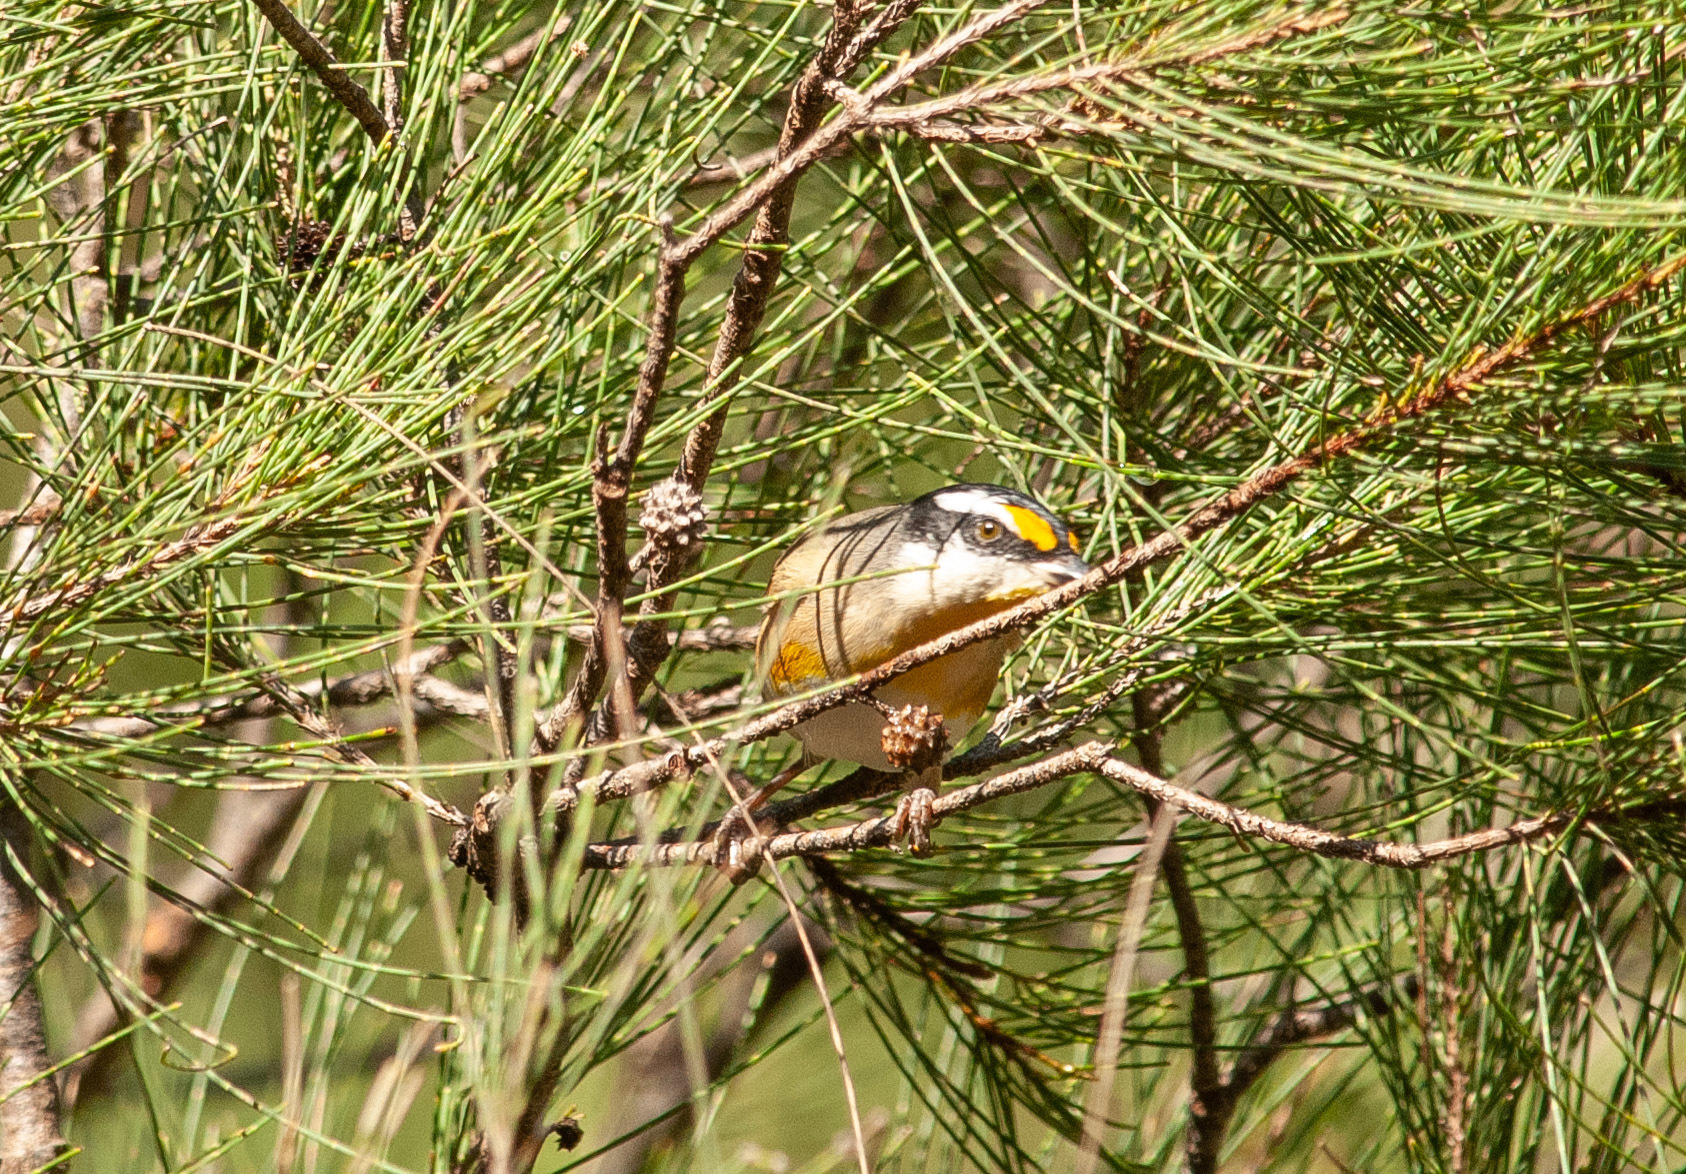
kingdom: Animalia
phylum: Chordata
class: Aves
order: Passeriformes
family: Pardalotidae
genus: Pardalotus
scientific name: Pardalotus striatus
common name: Striated pardalote
